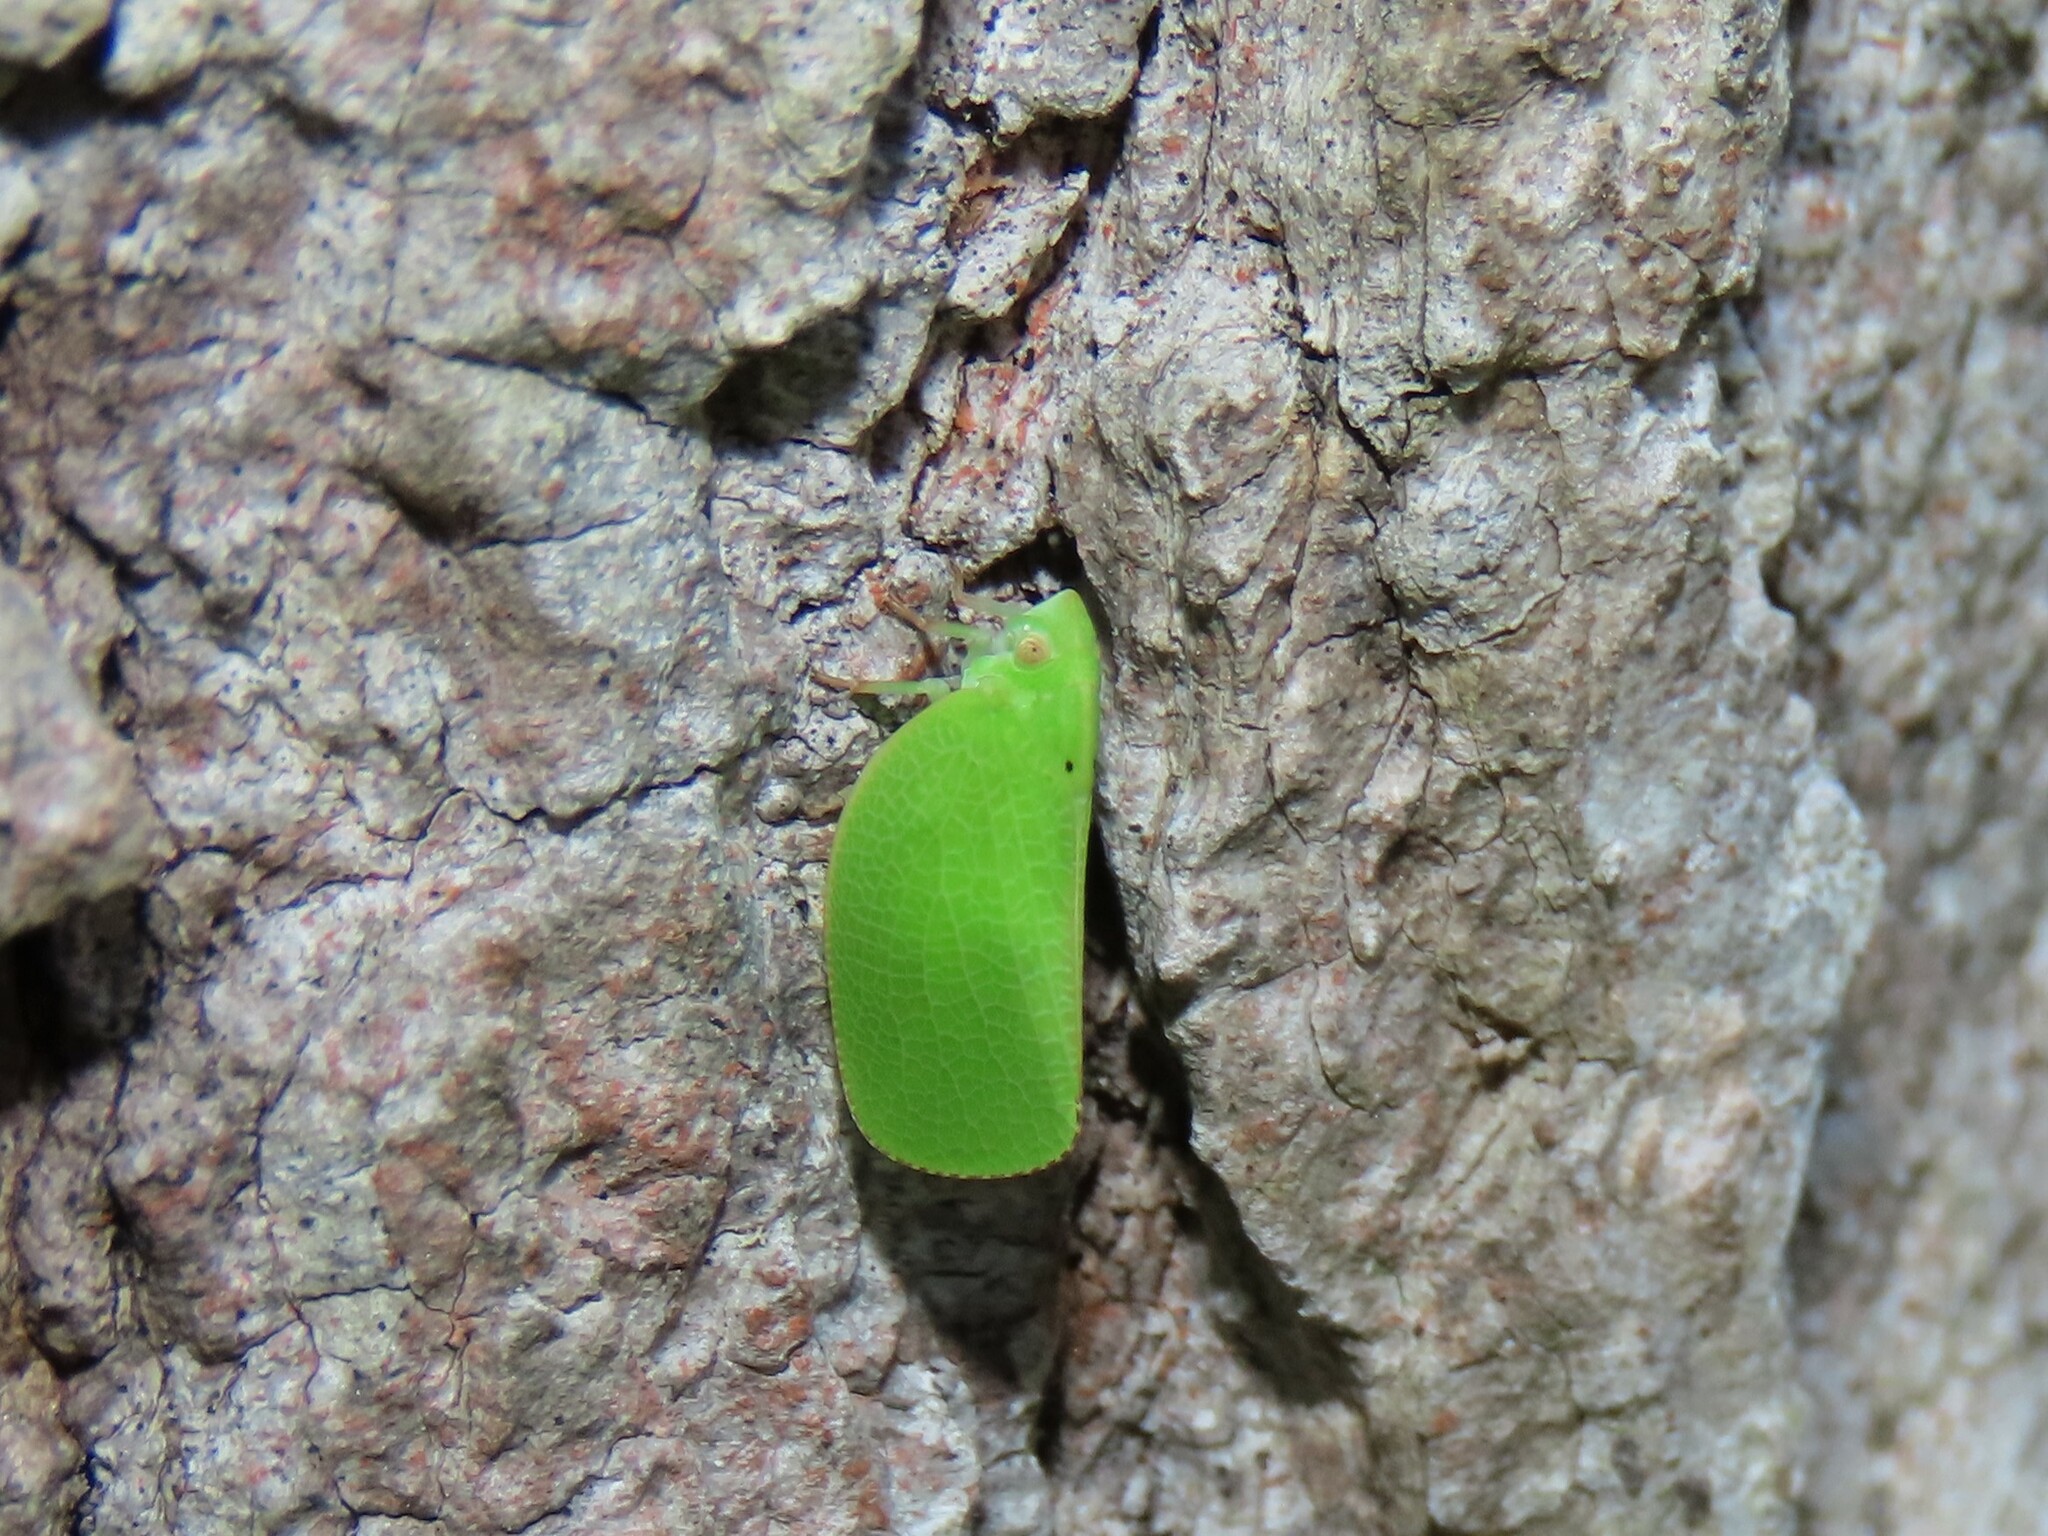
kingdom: Animalia
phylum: Arthropoda
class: Insecta
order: Hemiptera
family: Acanaloniidae
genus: Acanalonia
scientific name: Acanalonia conica
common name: Green cone-headed planthopper
